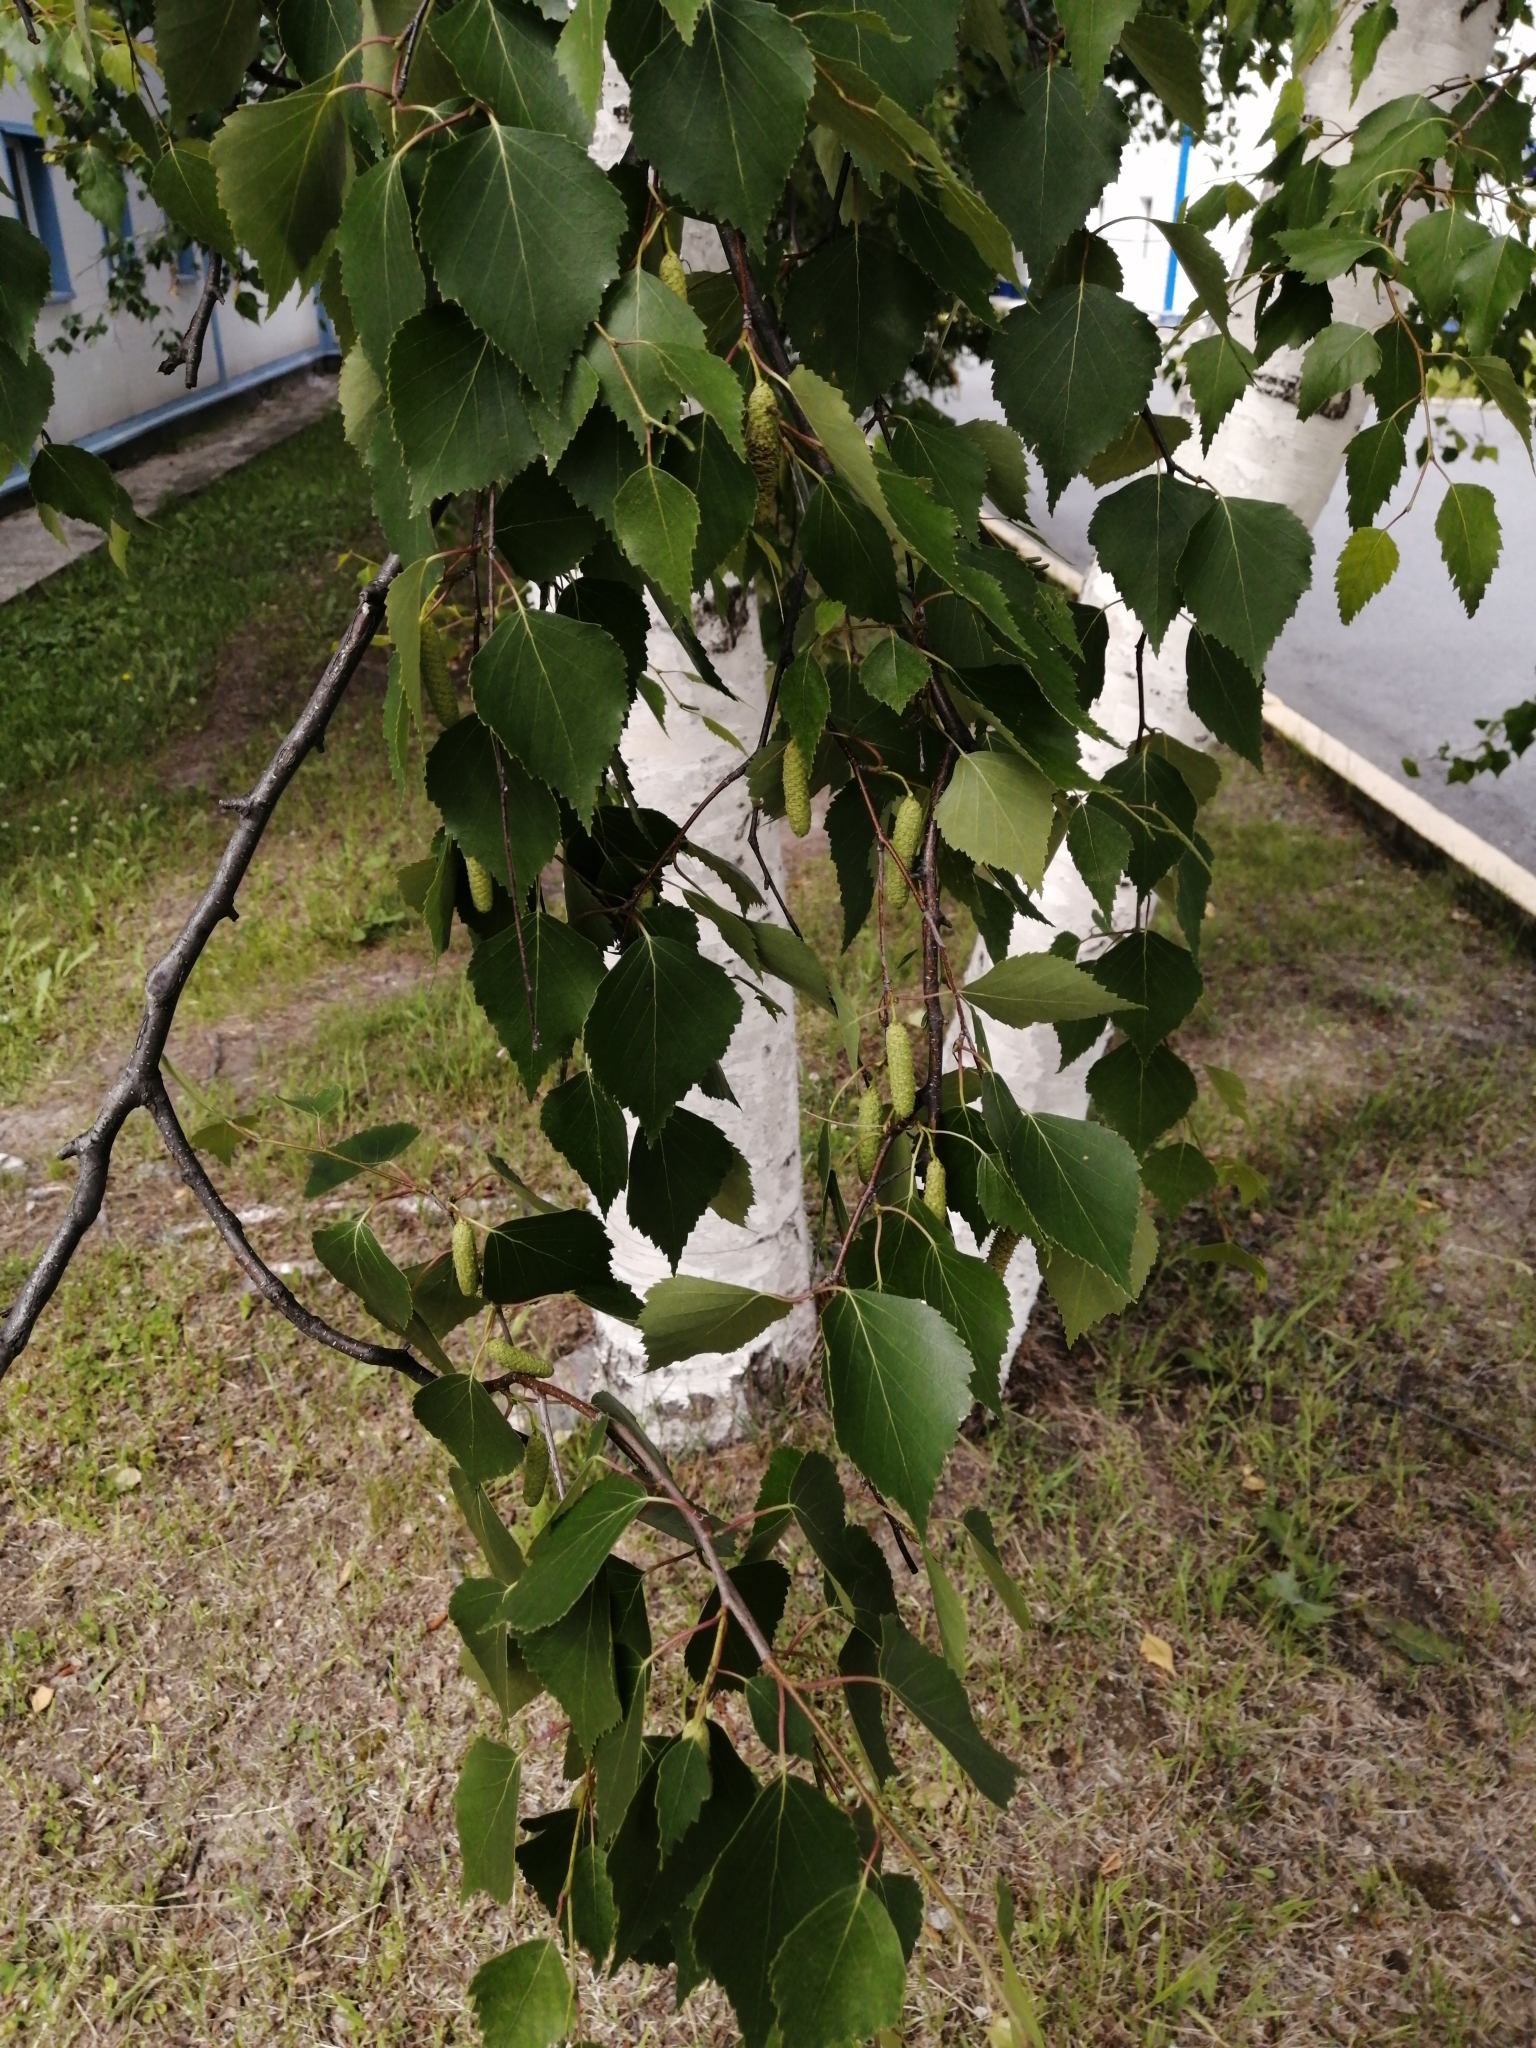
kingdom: Plantae
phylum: Tracheophyta
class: Magnoliopsida
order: Fagales
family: Betulaceae
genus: Betula
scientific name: Betula pendula
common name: Silver birch
